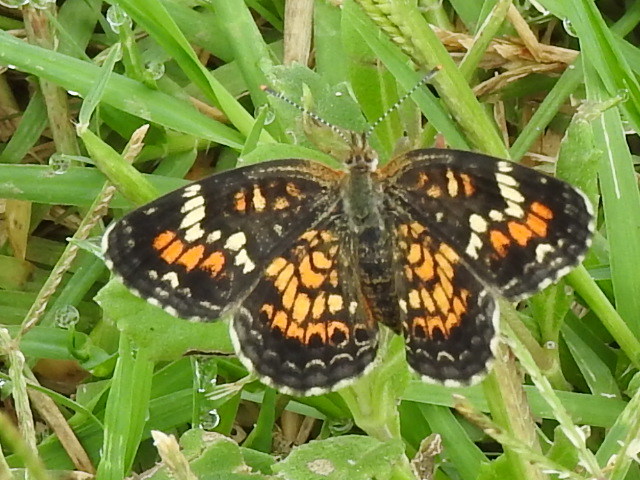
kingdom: Animalia
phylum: Arthropoda
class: Insecta
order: Lepidoptera
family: Nymphalidae
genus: Phyciodes
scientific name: Phyciodes phaon
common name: Phaon crescent
